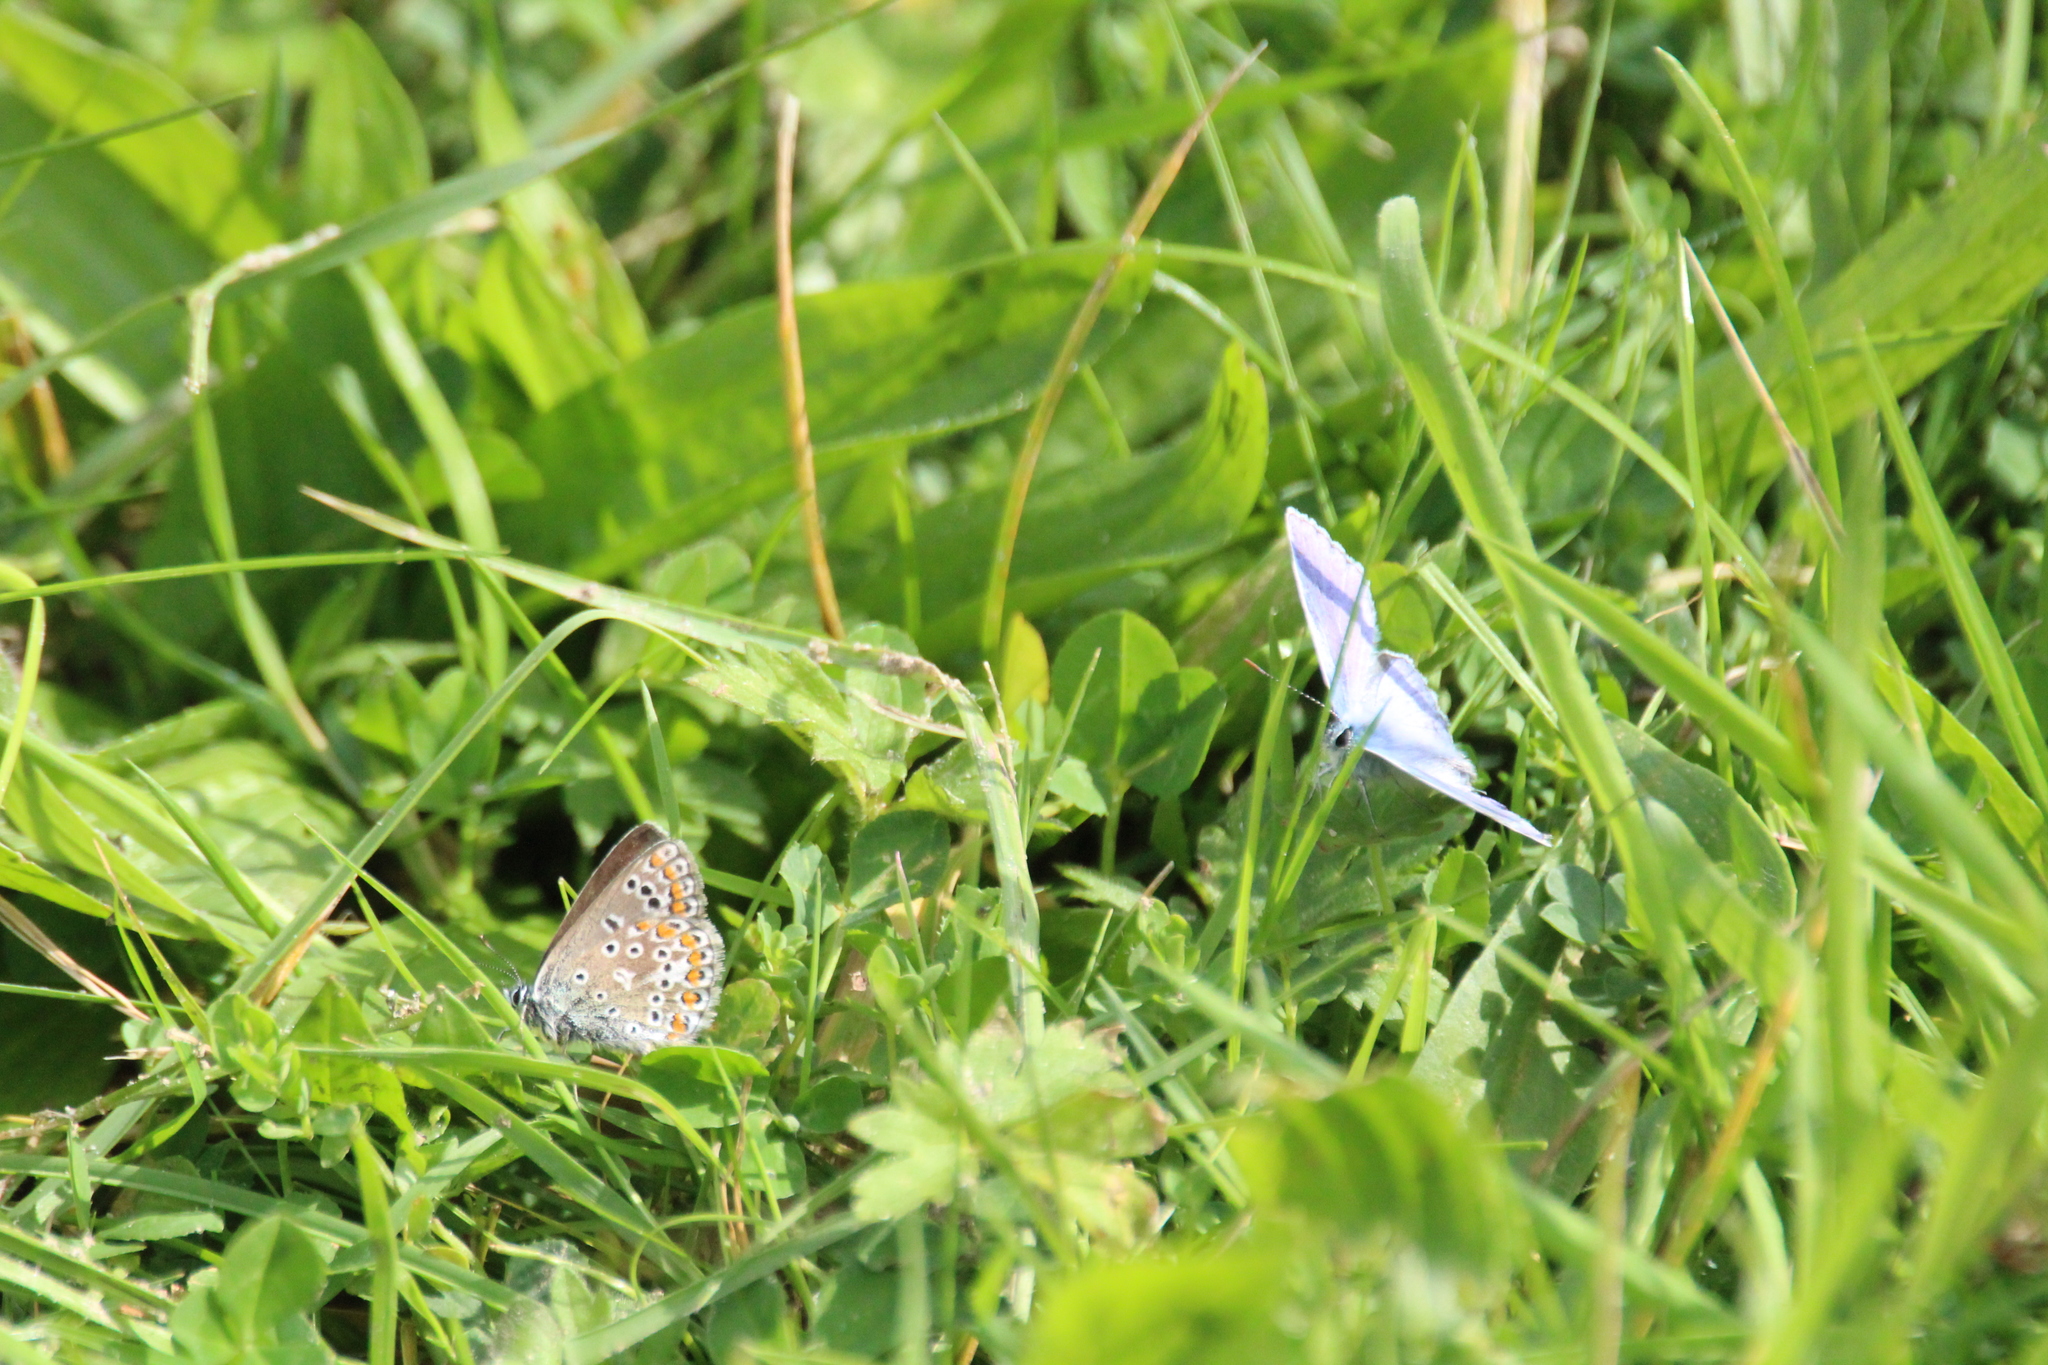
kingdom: Animalia
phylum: Arthropoda
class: Insecta
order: Lepidoptera
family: Lycaenidae
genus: Polyommatus
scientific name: Polyommatus icarus
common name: Common blue
